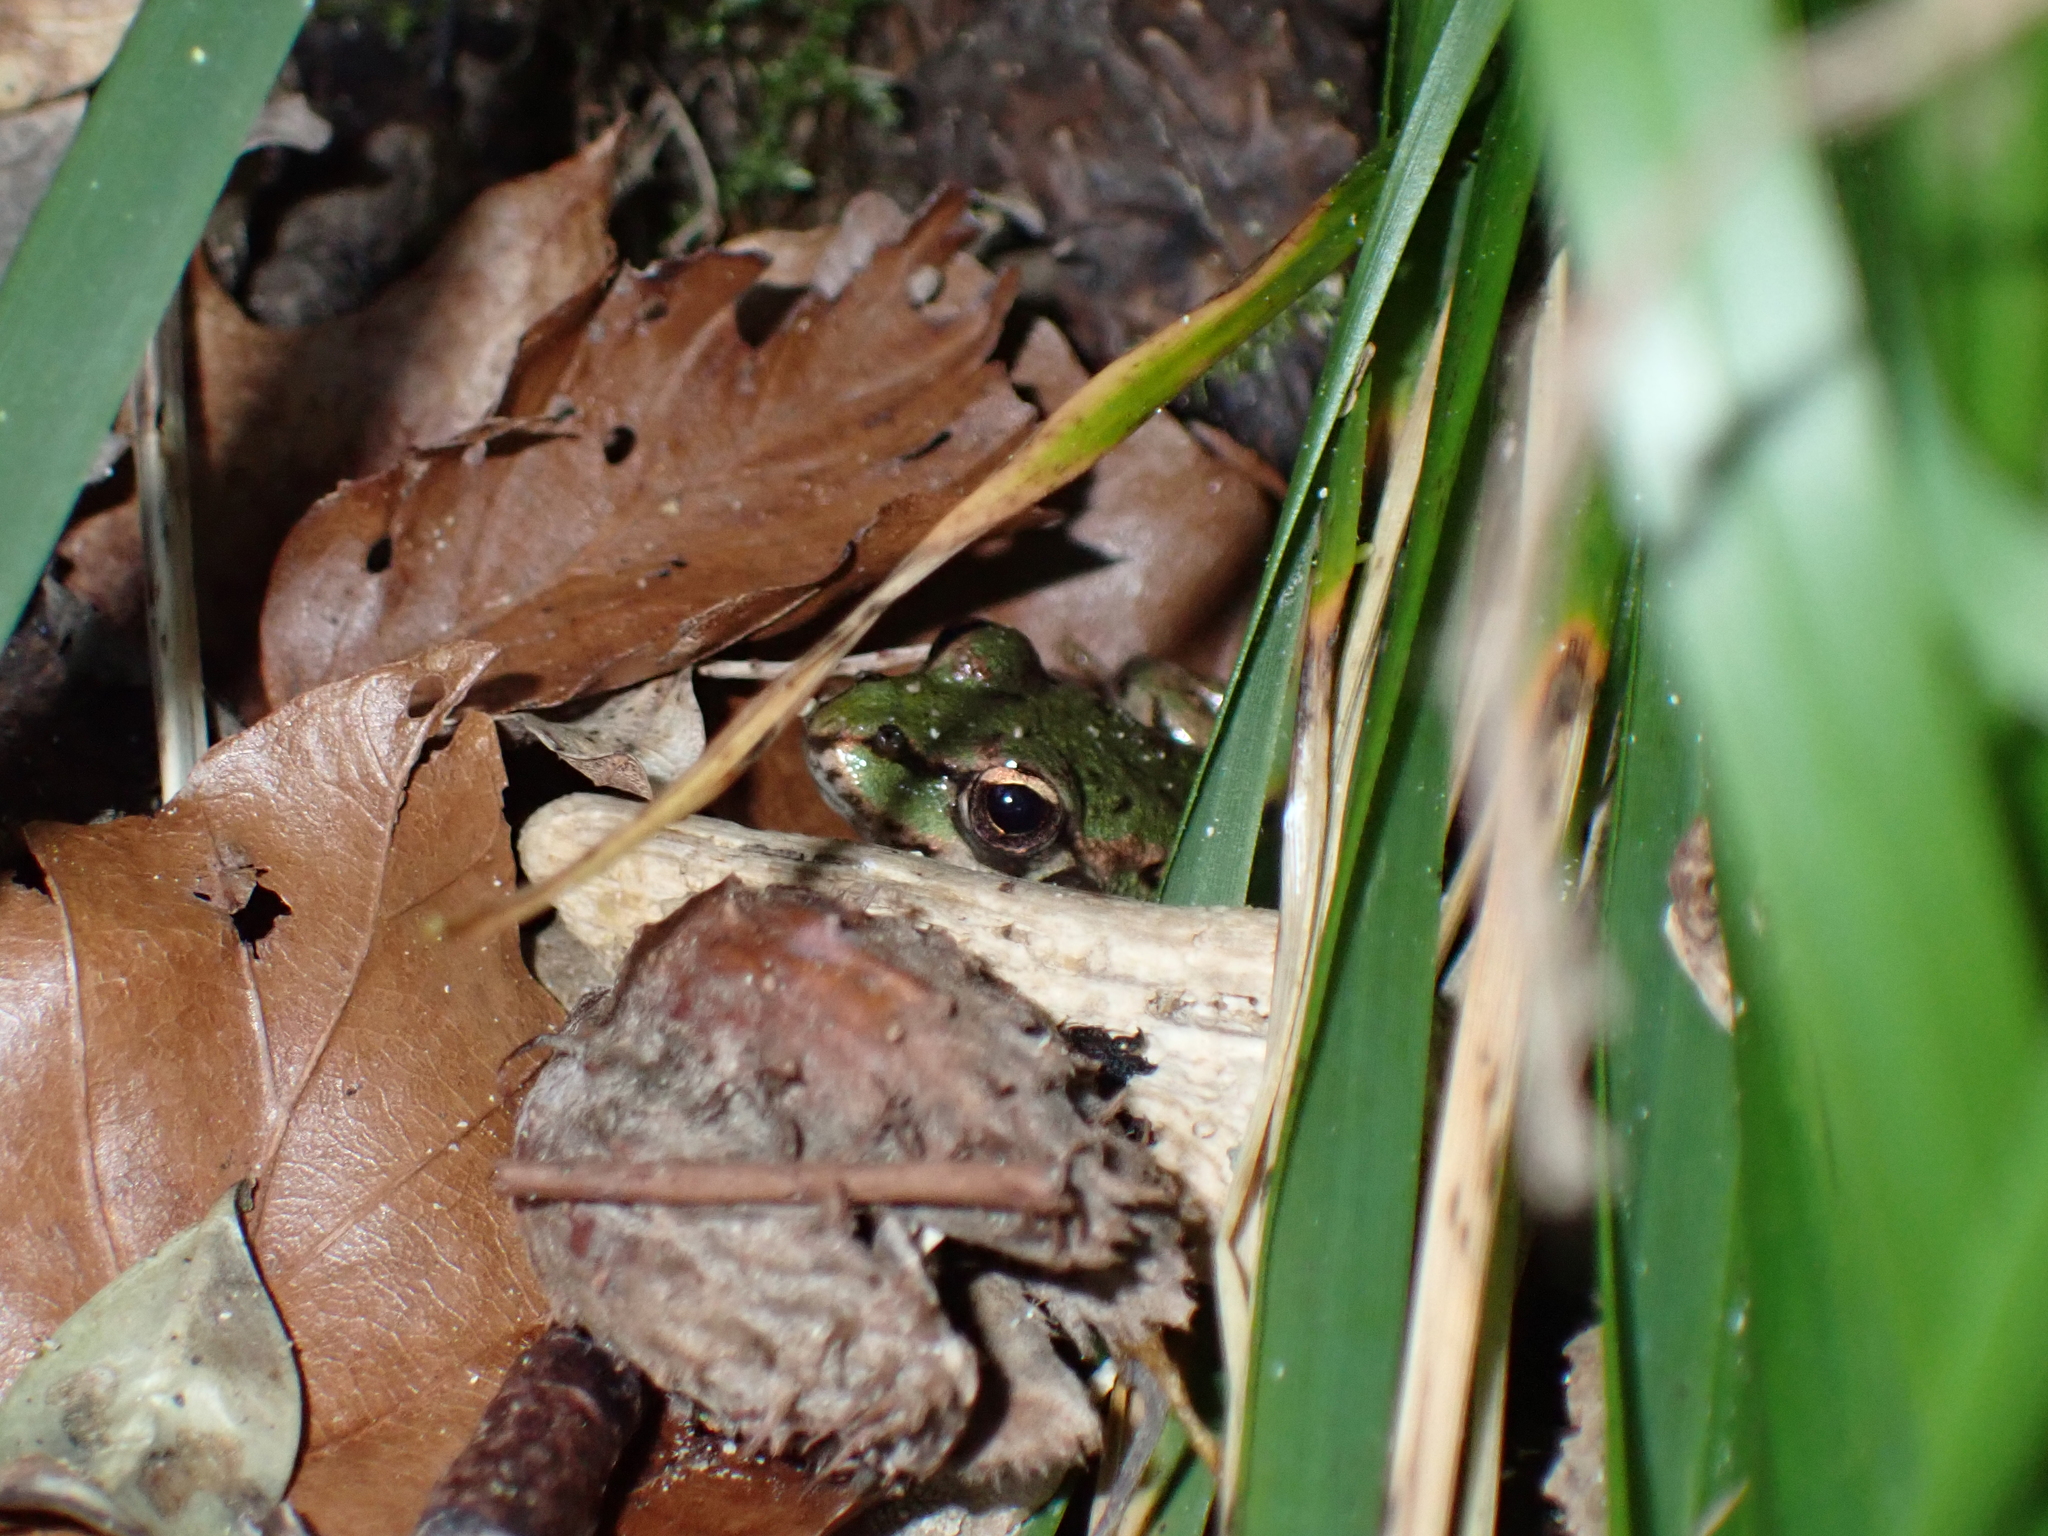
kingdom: Animalia
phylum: Chordata
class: Amphibia
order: Anura
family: Ranidae
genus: Pelophylax
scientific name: Pelophylax perezi
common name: Perez's frog
